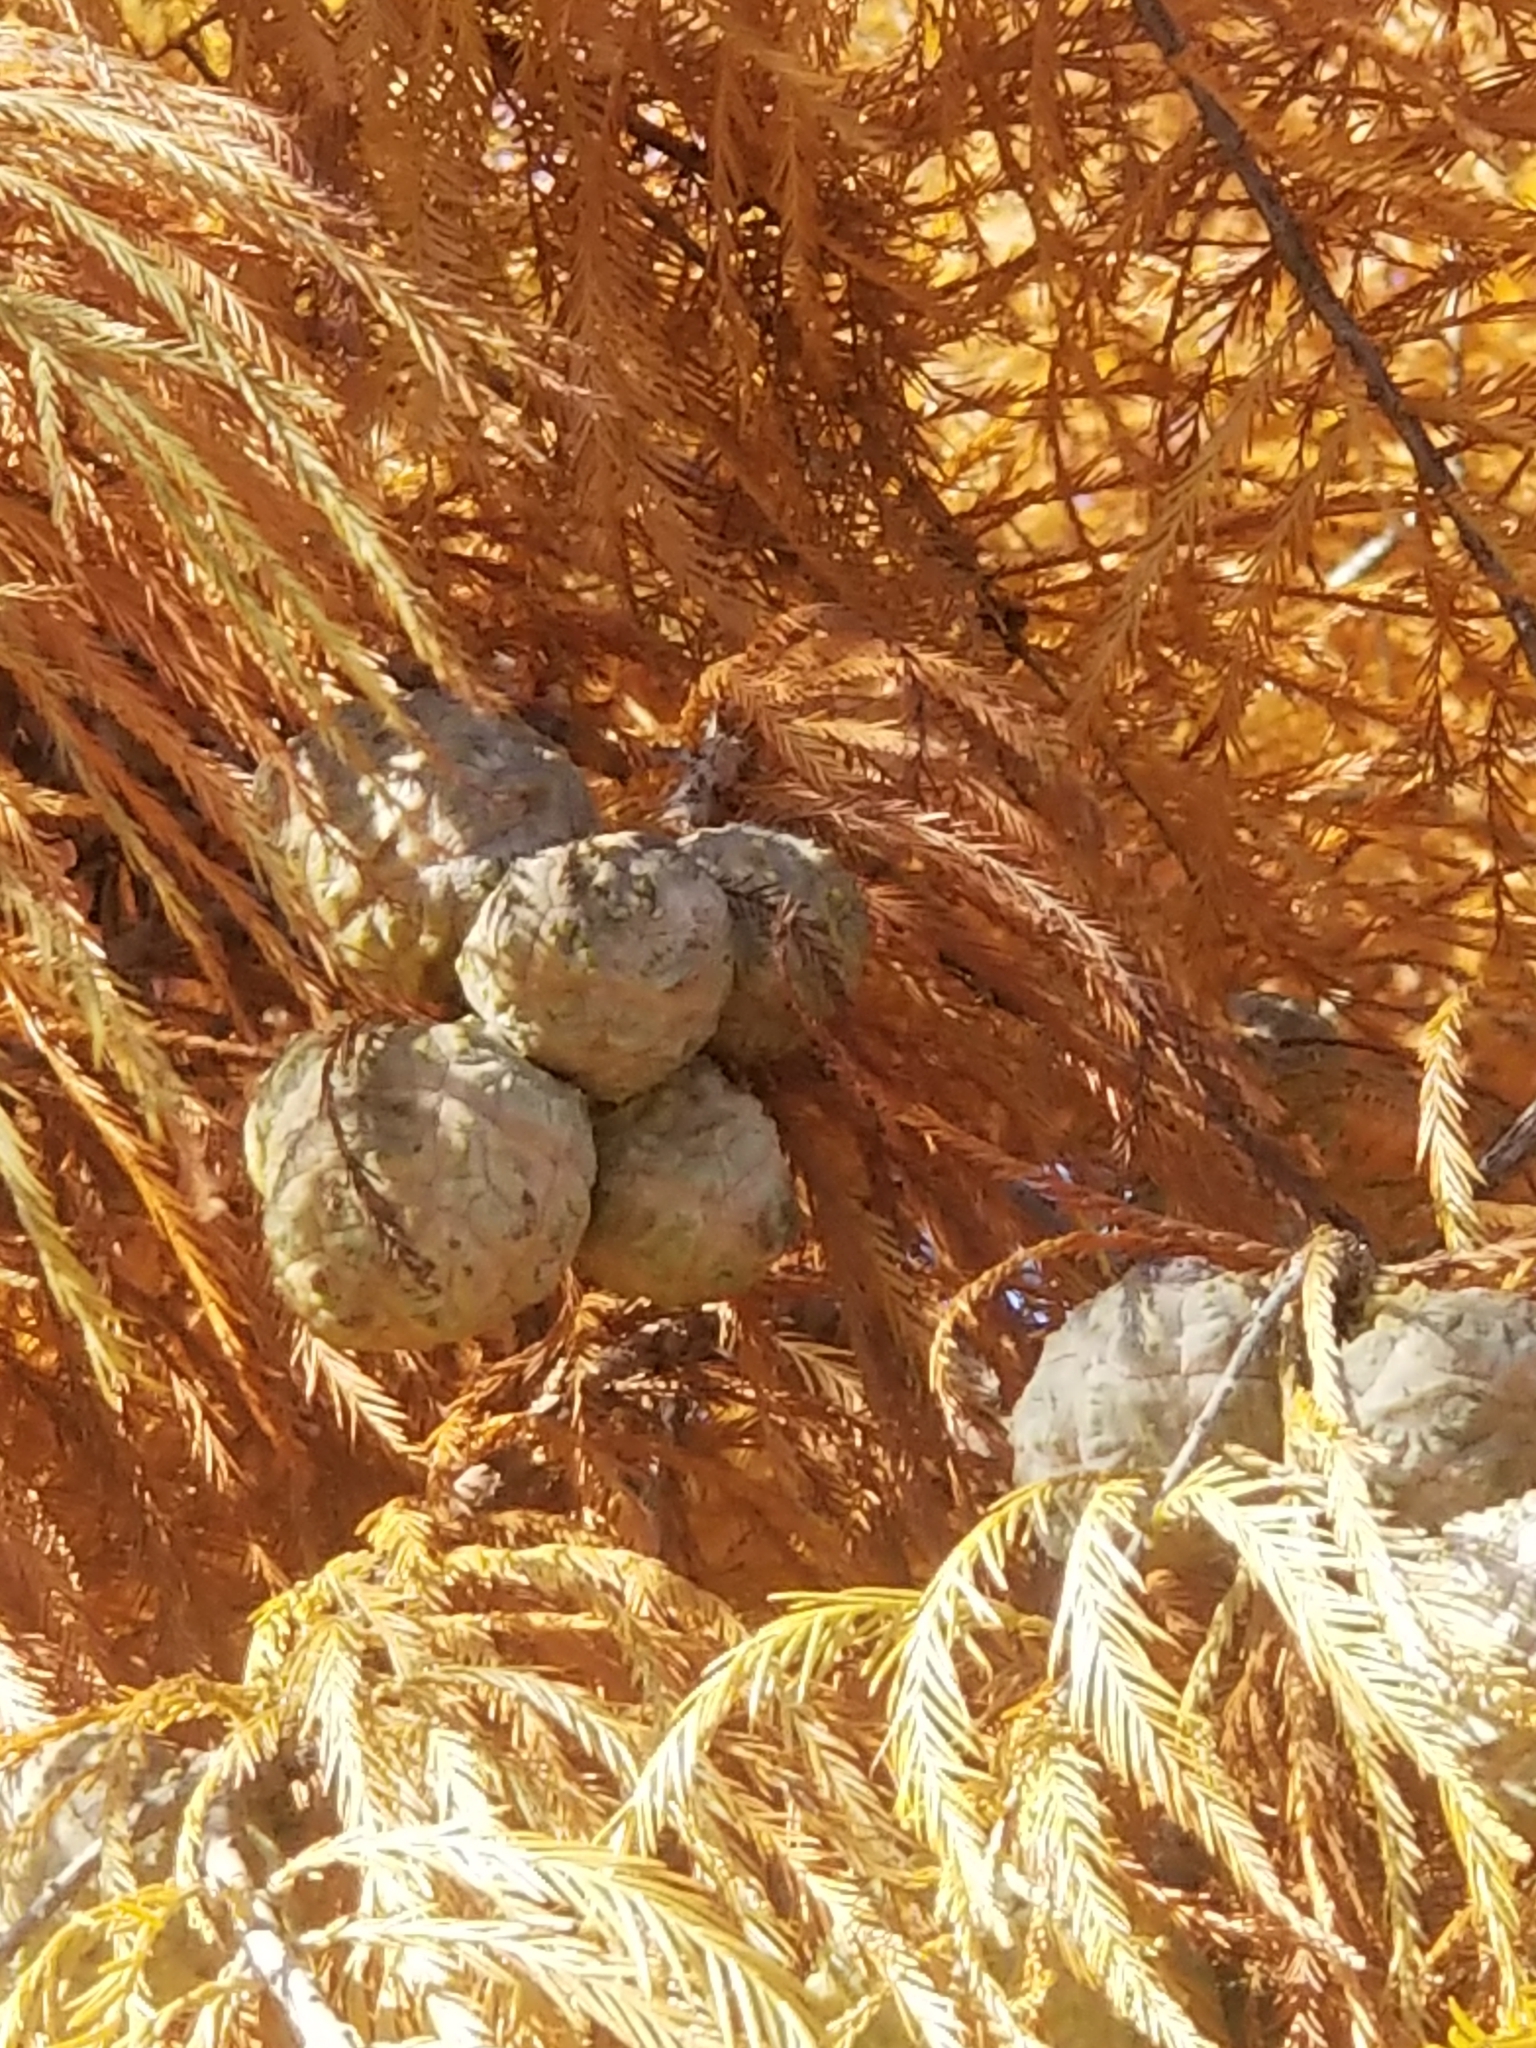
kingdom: Plantae
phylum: Tracheophyta
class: Pinopsida
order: Pinales
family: Cupressaceae
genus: Taxodium
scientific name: Taxodium distichum
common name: Bald cypress
